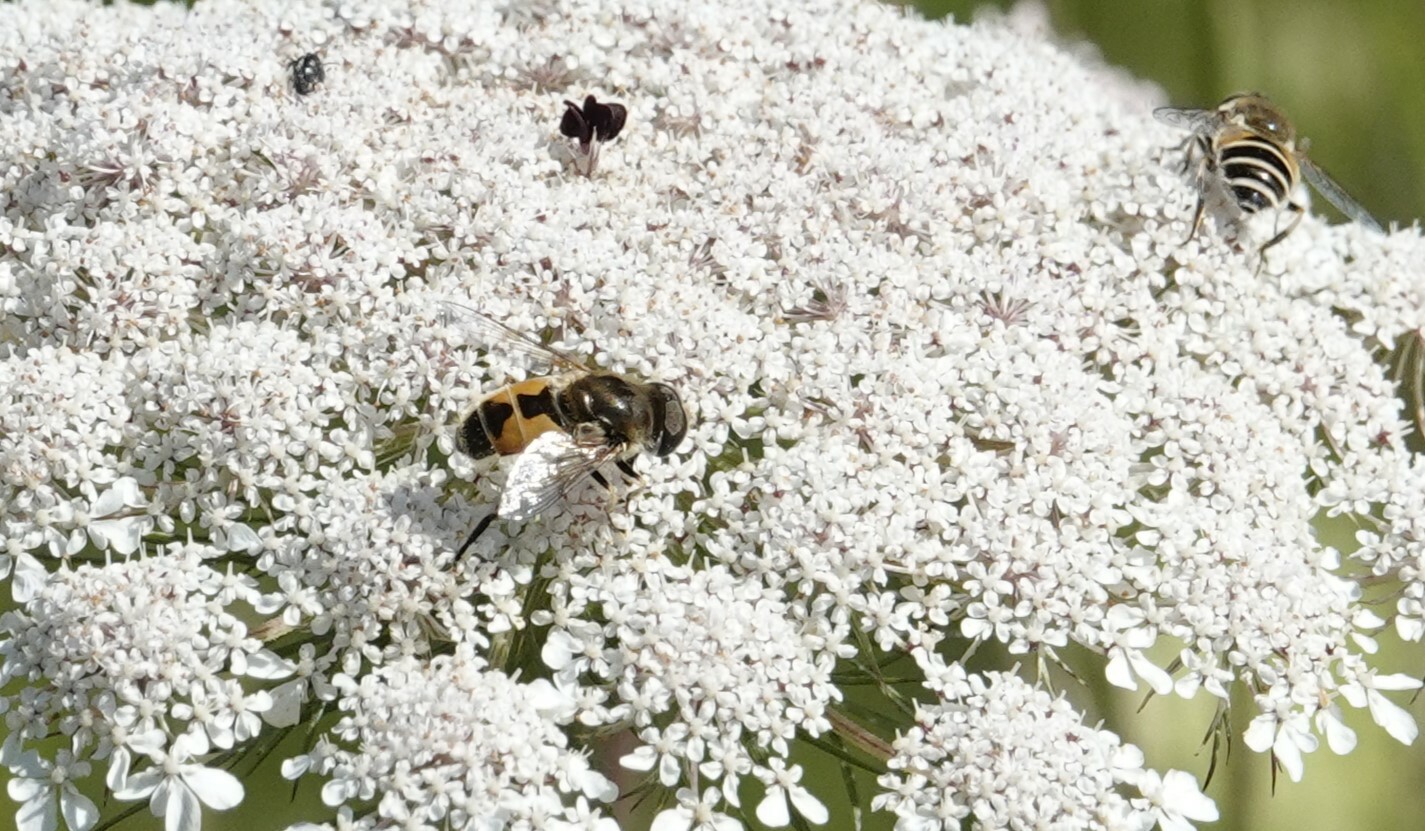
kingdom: Animalia
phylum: Arthropoda
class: Insecta
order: Diptera
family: Syrphidae
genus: Eristalis
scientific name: Eristalis arbustorum
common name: Hover fly
